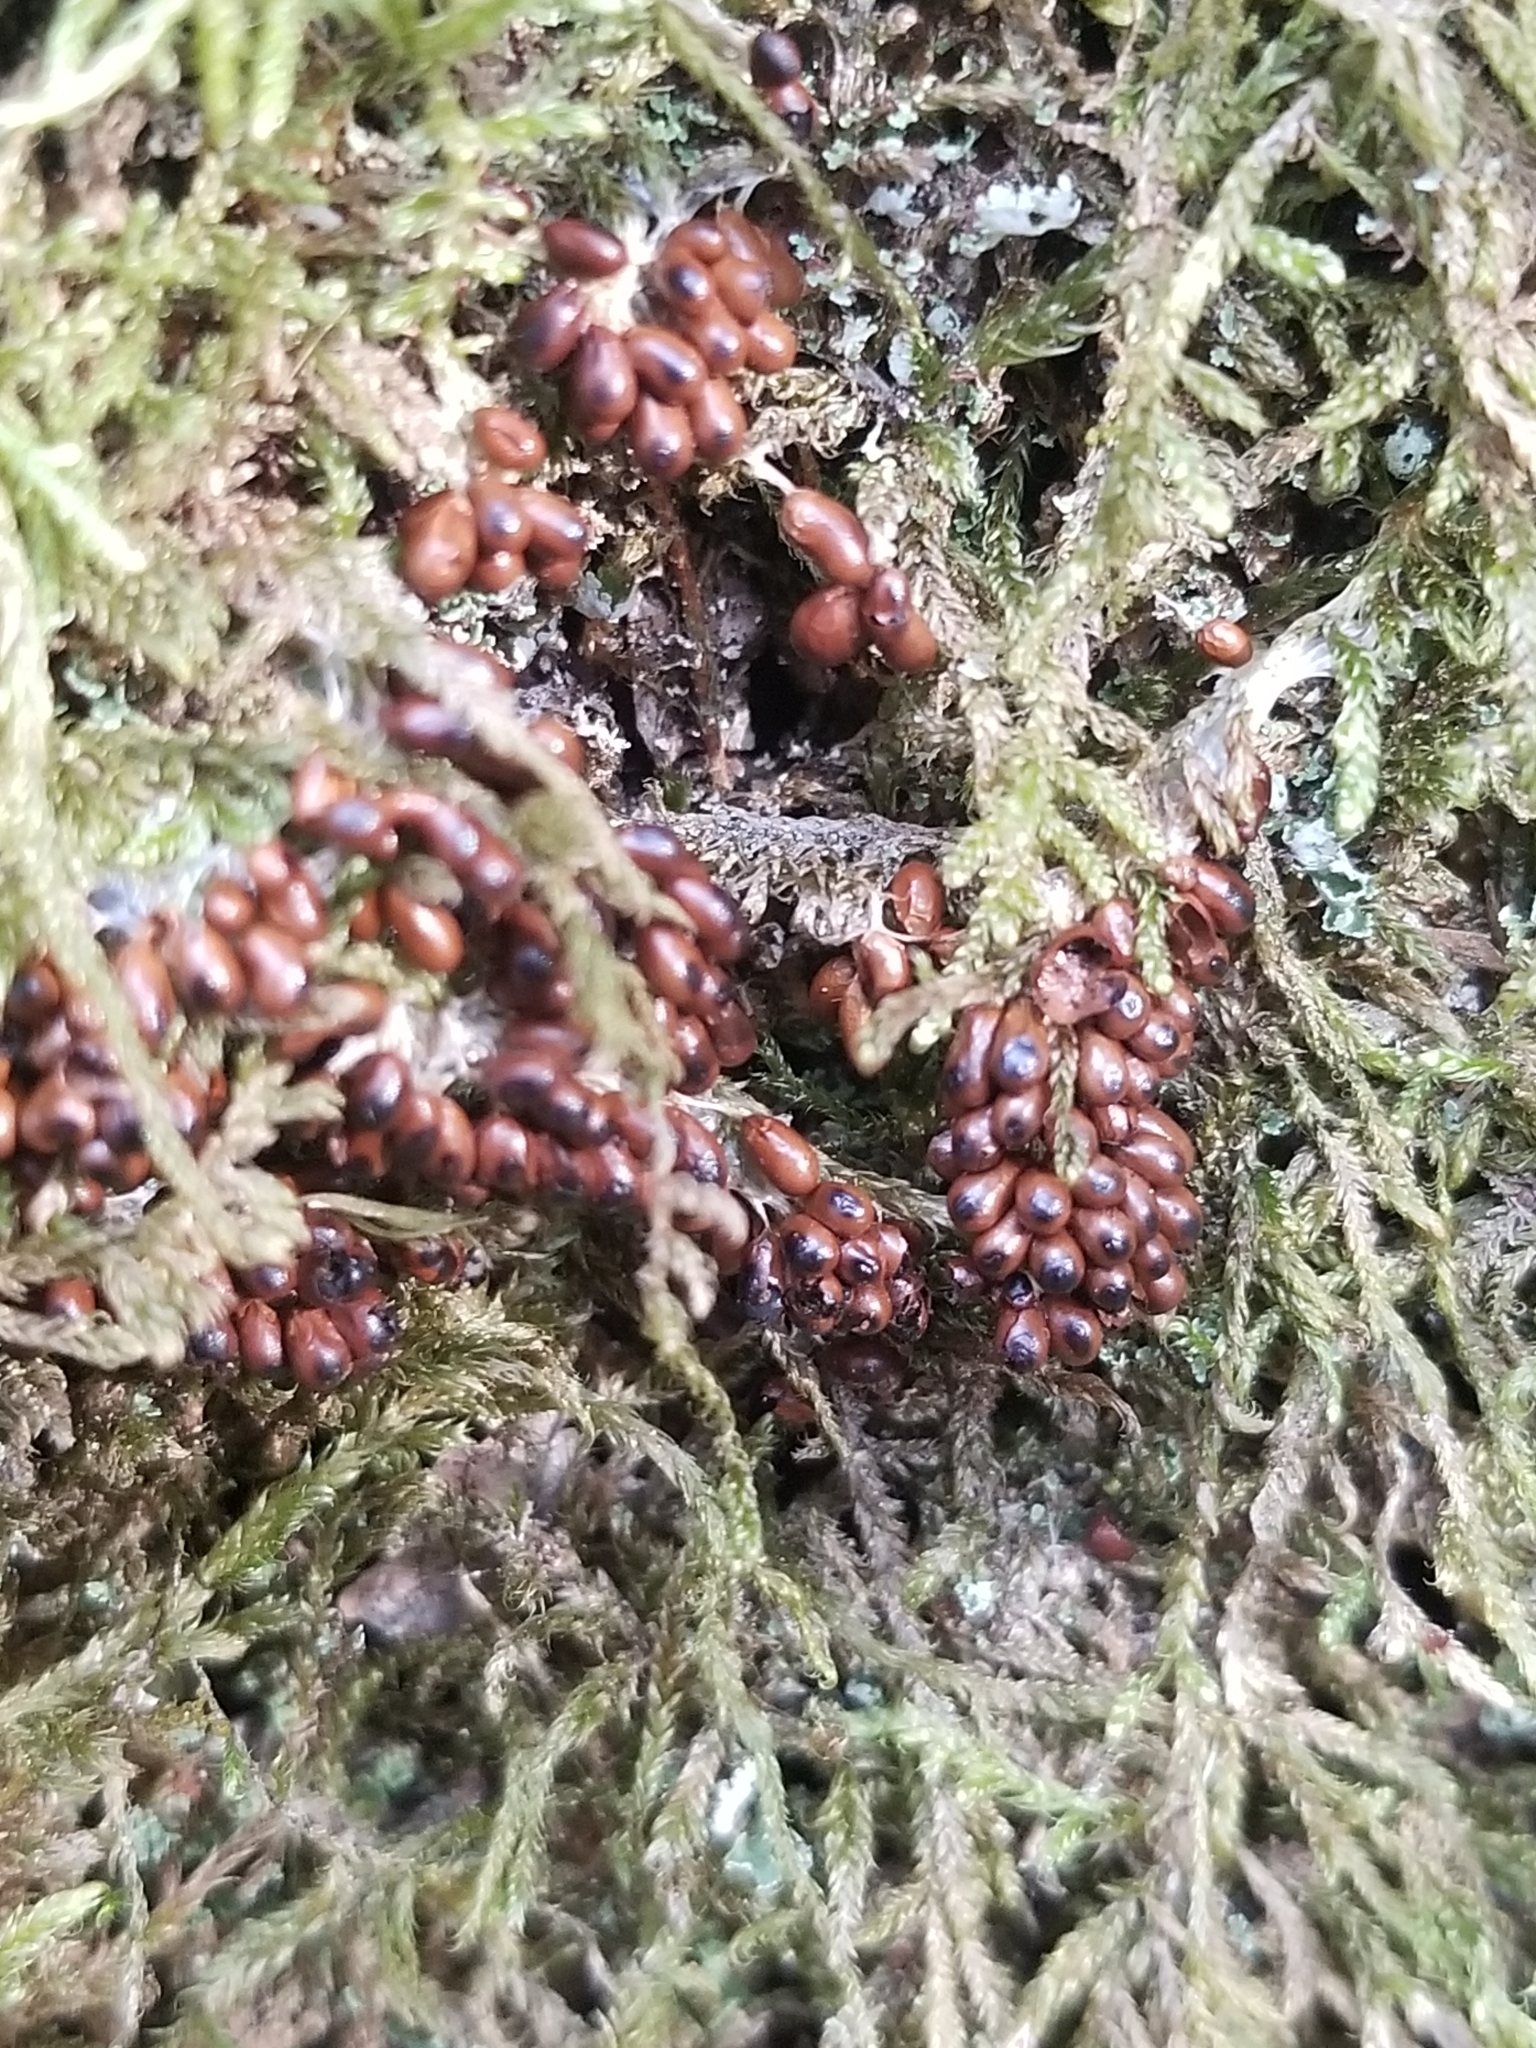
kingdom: Protozoa
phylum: Mycetozoa
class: Myxomycetes
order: Physarales
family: Physaraceae
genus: Leocarpus
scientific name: Leocarpus fragilis
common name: Insect-egg slime
